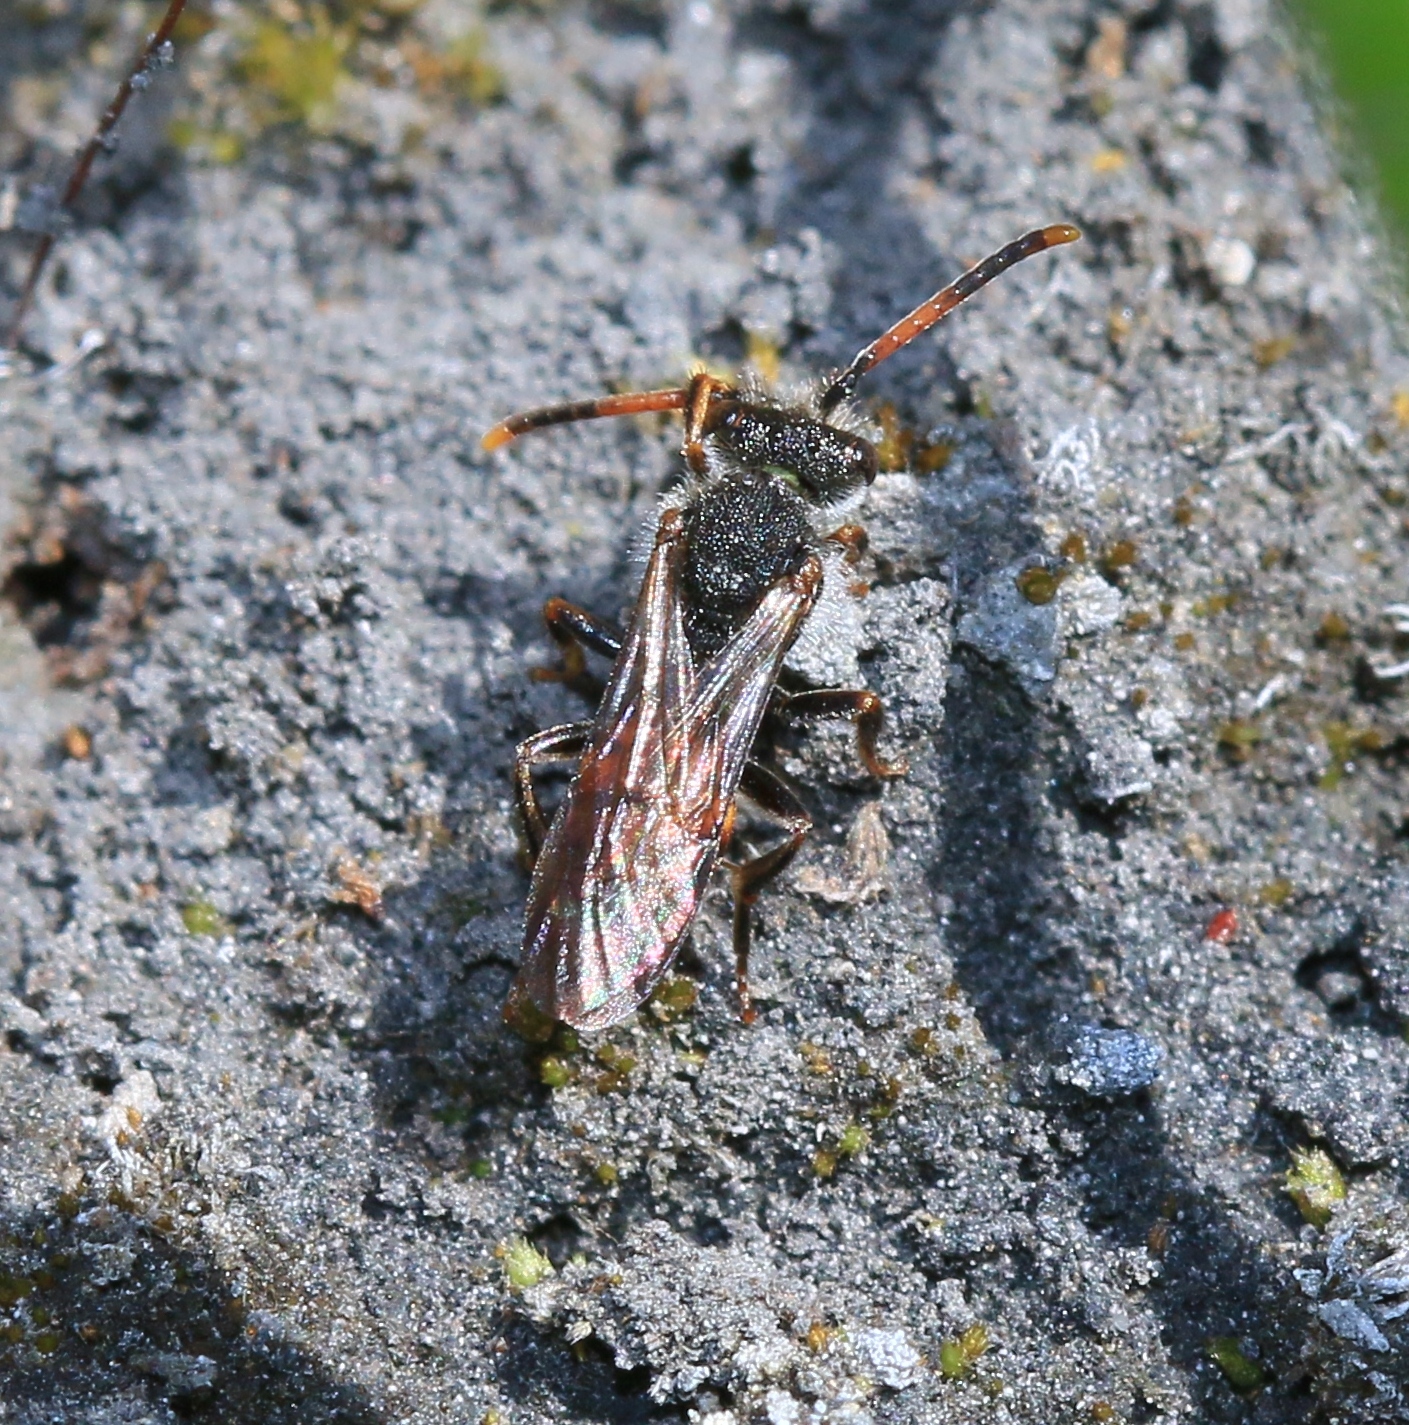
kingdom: Animalia
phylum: Arthropoda
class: Insecta
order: Hymenoptera
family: Apidae
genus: Nomada
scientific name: Nomada fabriciana
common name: Fabricius' nomad bee
